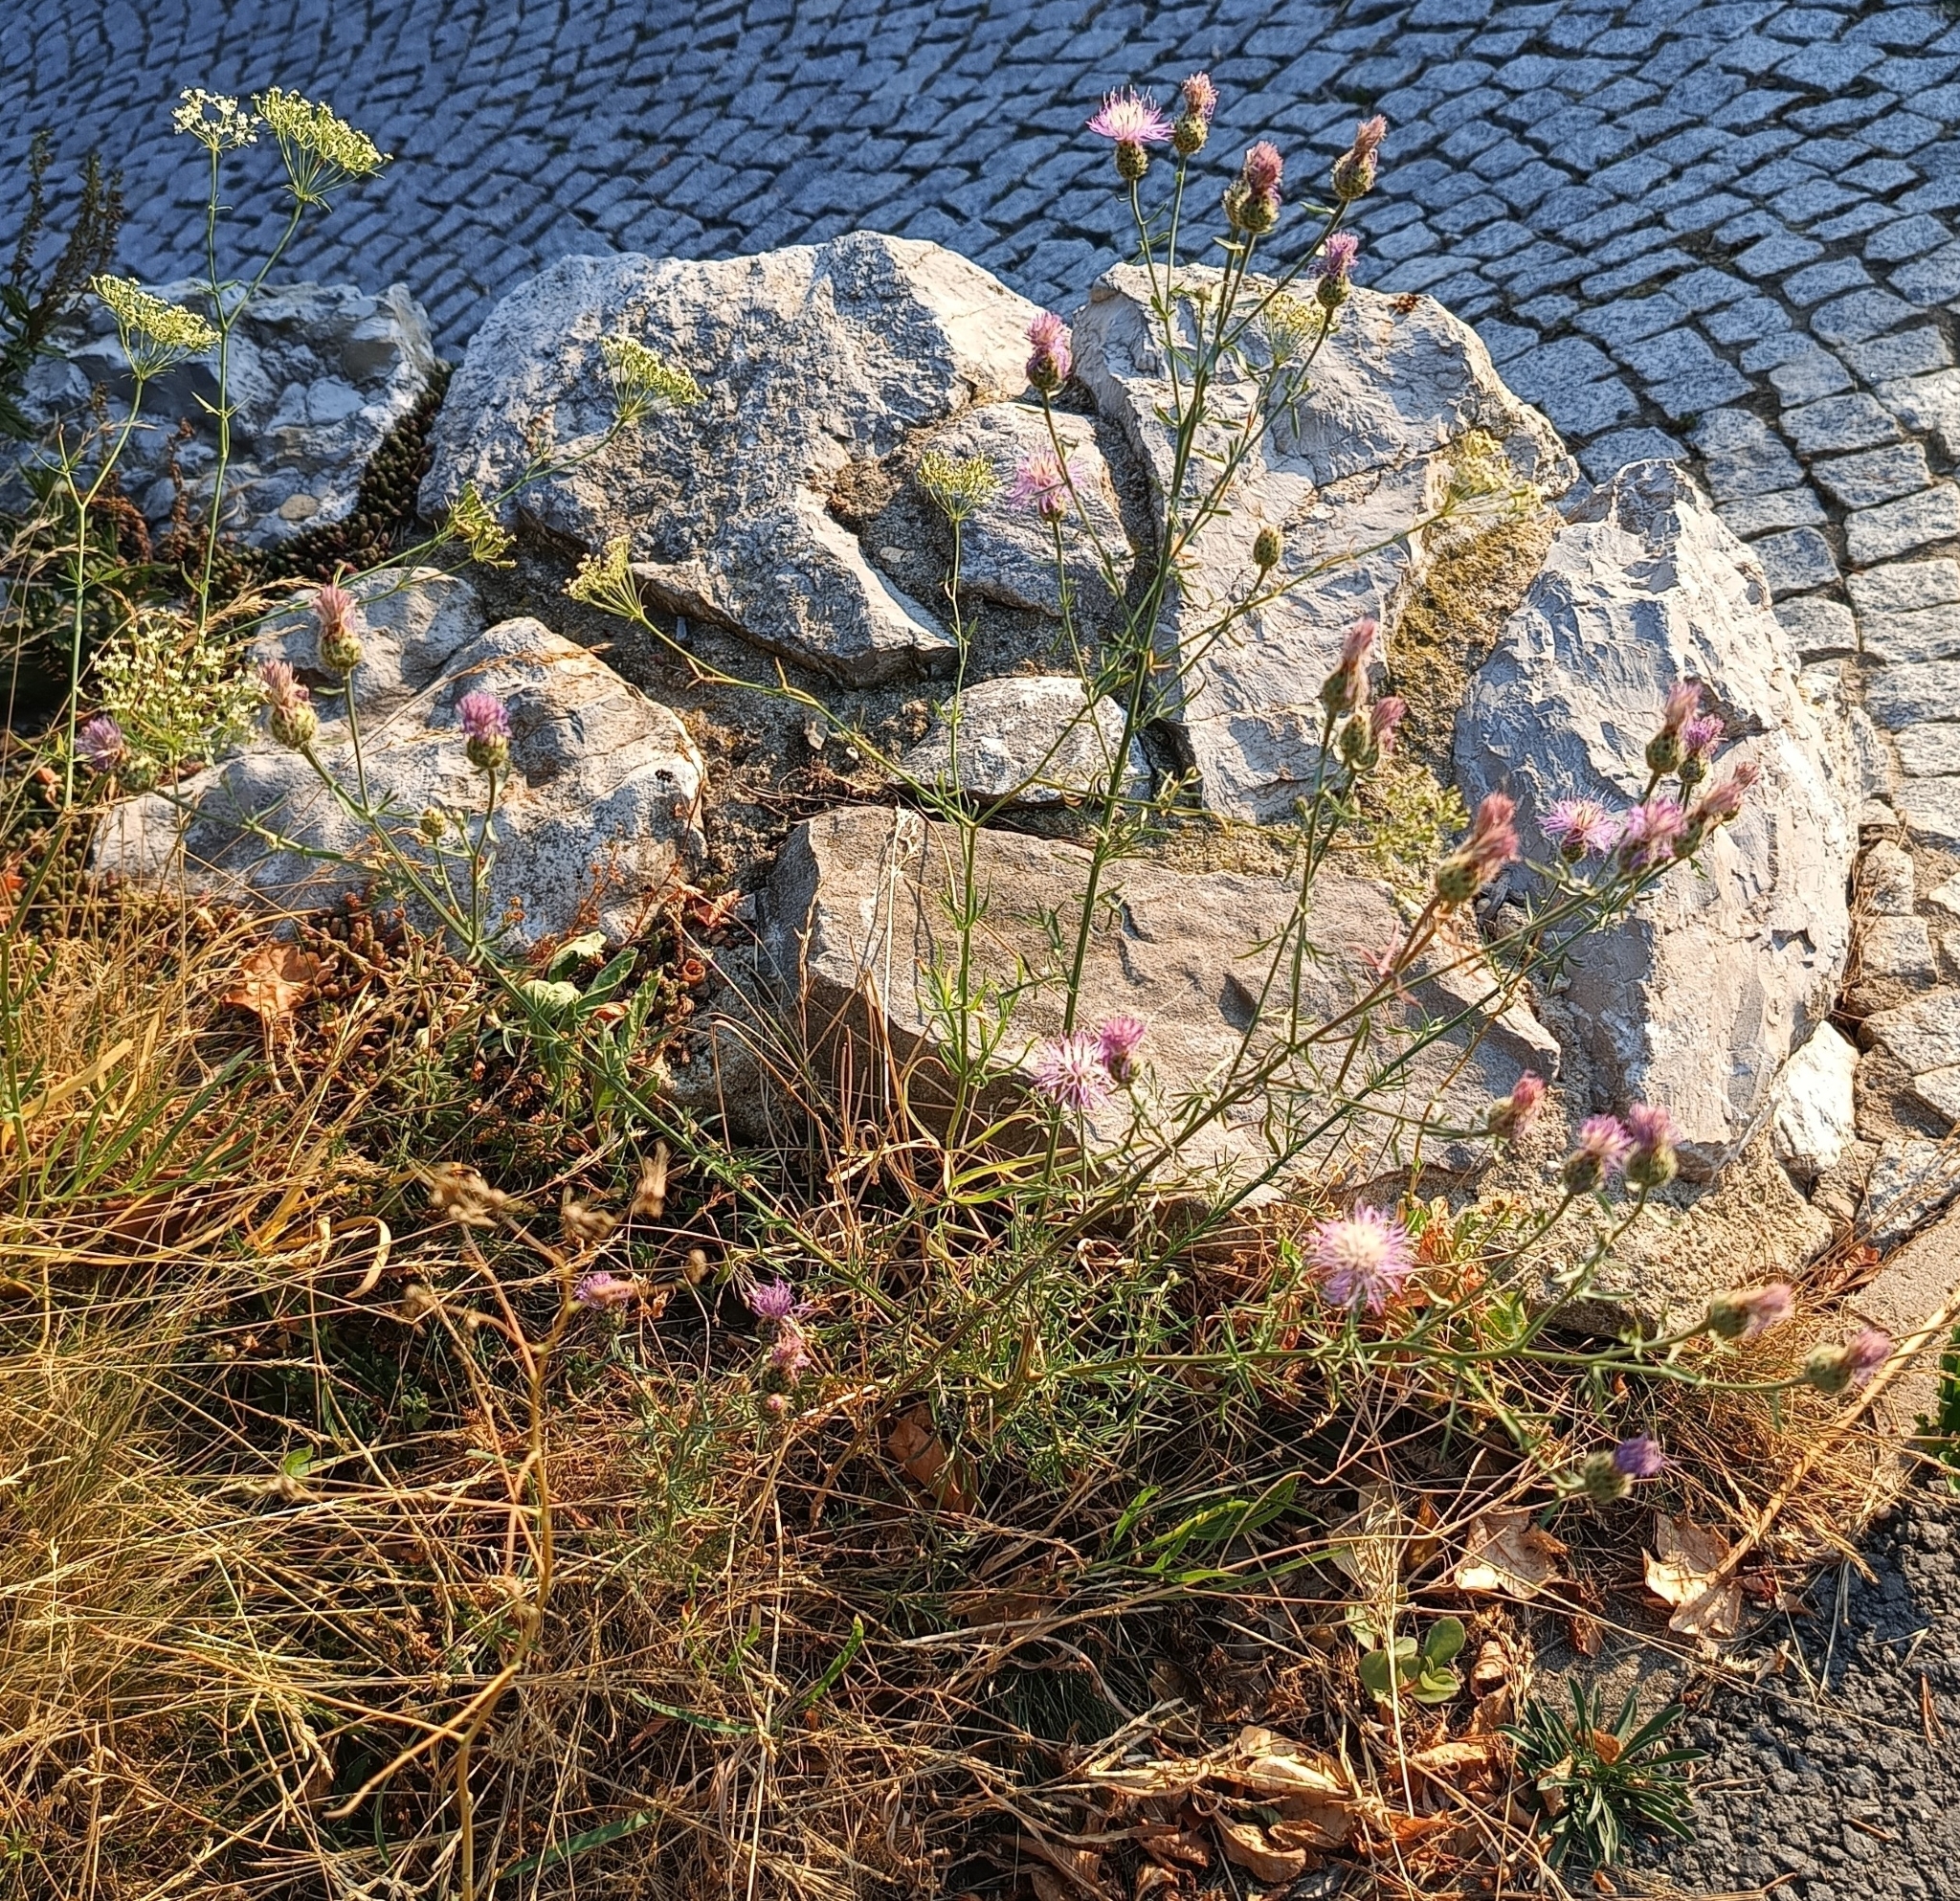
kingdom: Plantae
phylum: Tracheophyta
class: Magnoliopsida
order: Asterales
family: Asteraceae
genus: Centaurea
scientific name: Centaurea stoebe
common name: Spotted knapweed
